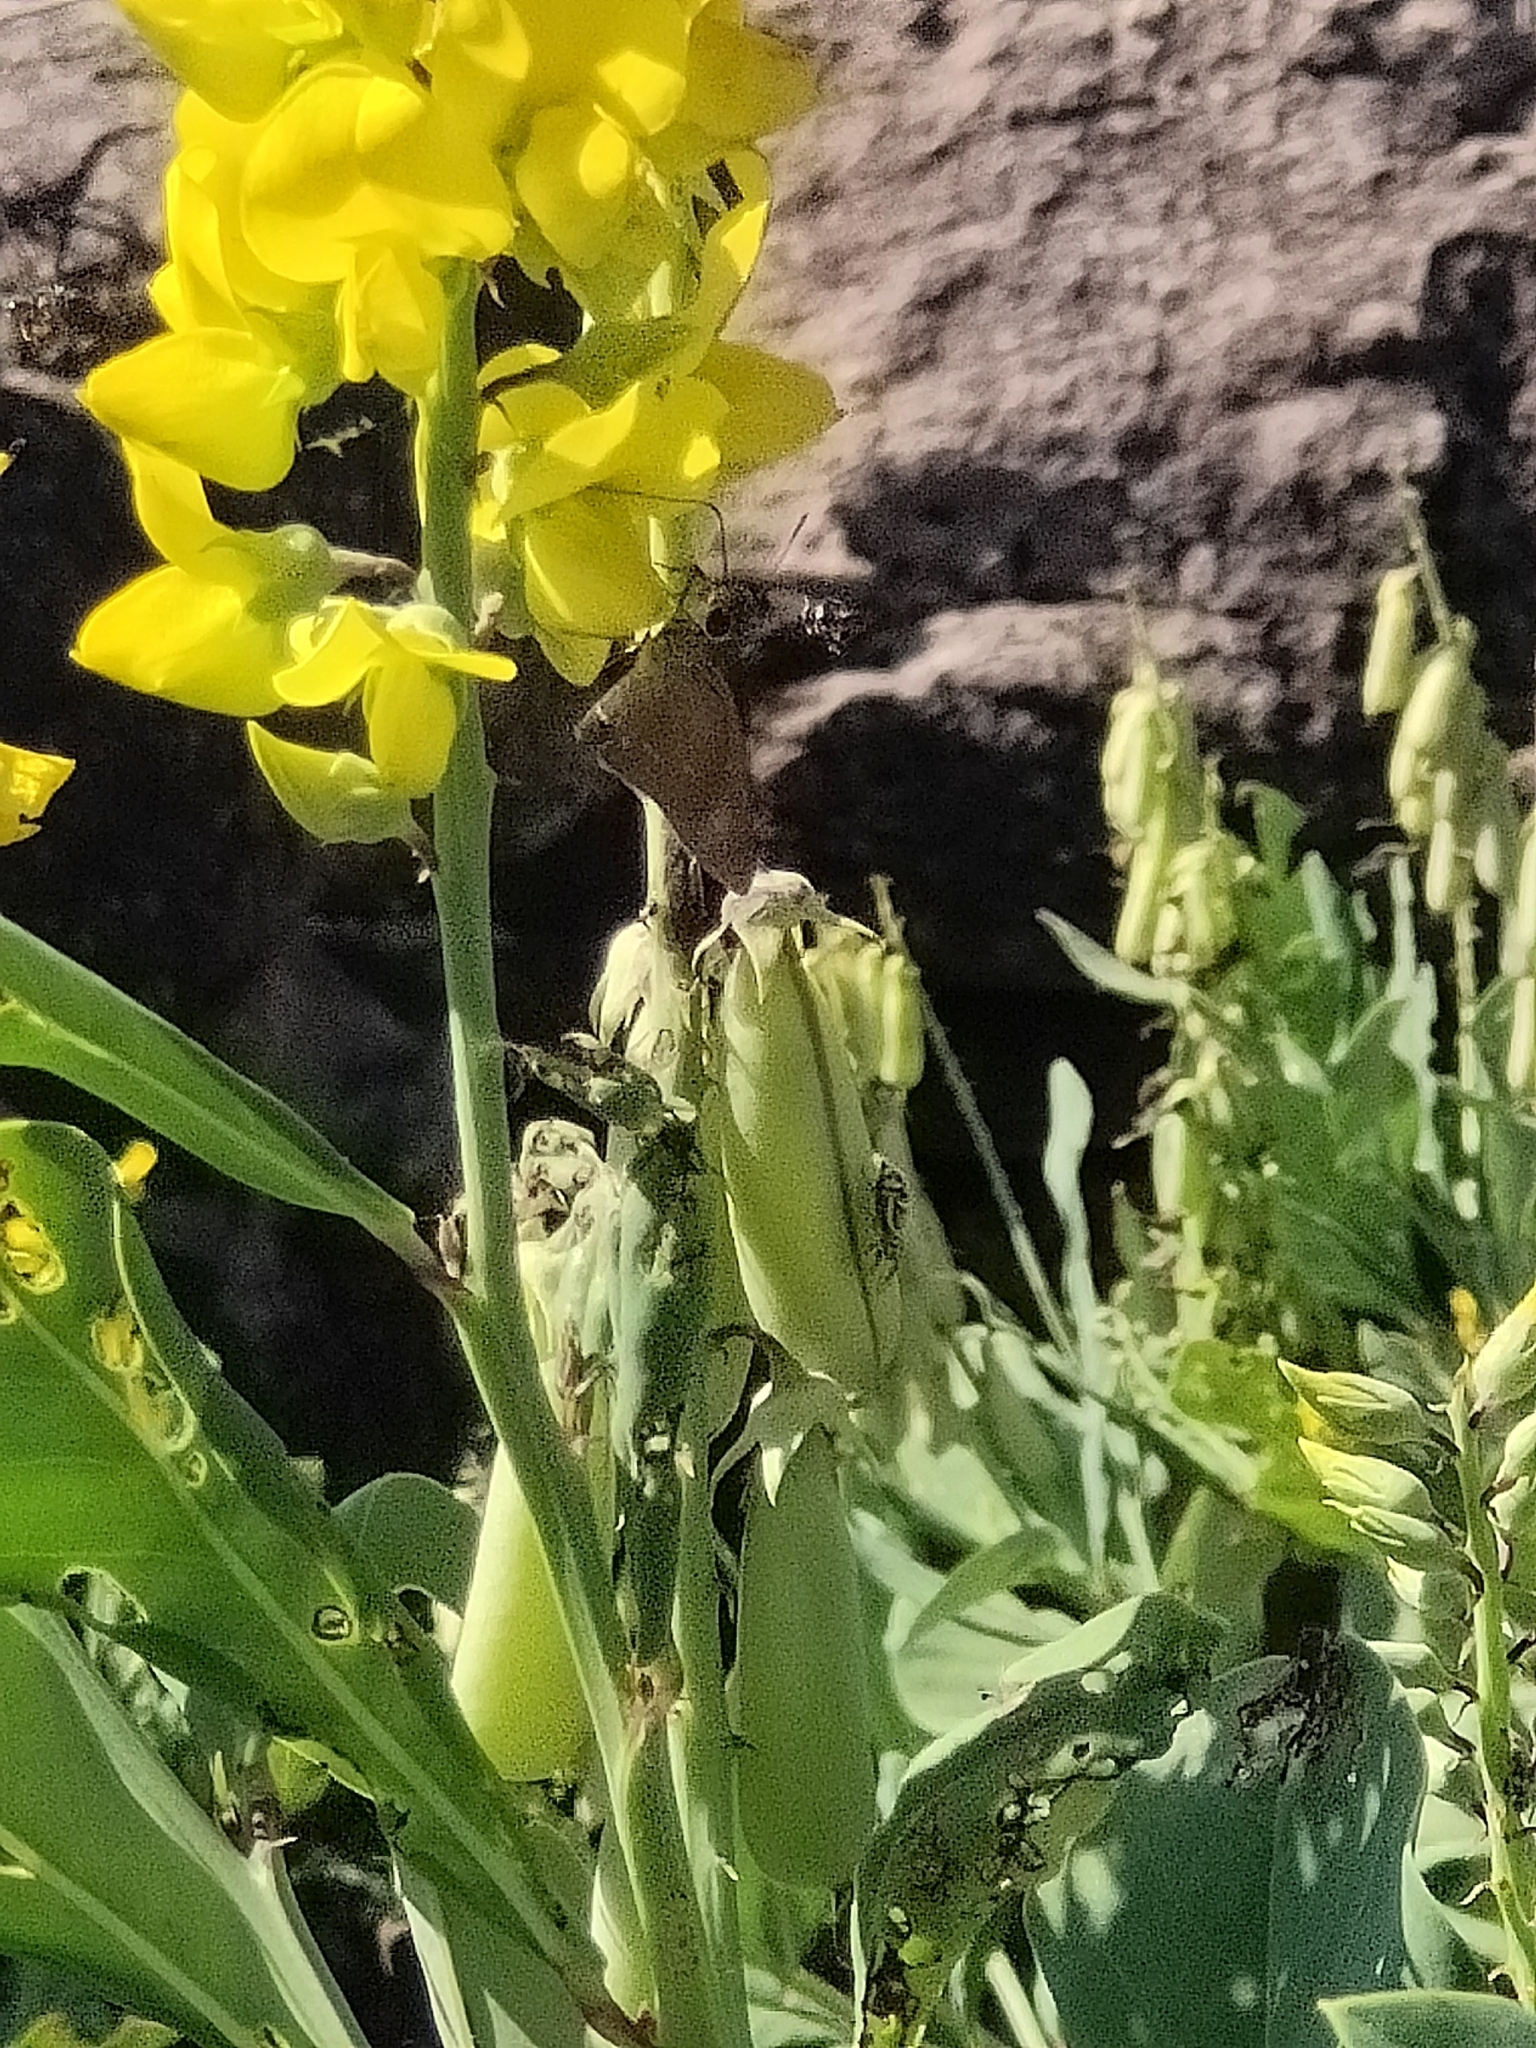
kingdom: Plantae
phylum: Tracheophyta
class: Magnoliopsida
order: Fabales
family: Fabaceae
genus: Crotalaria
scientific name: Crotalaria novae-hollandiae
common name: New holland rattlepod
